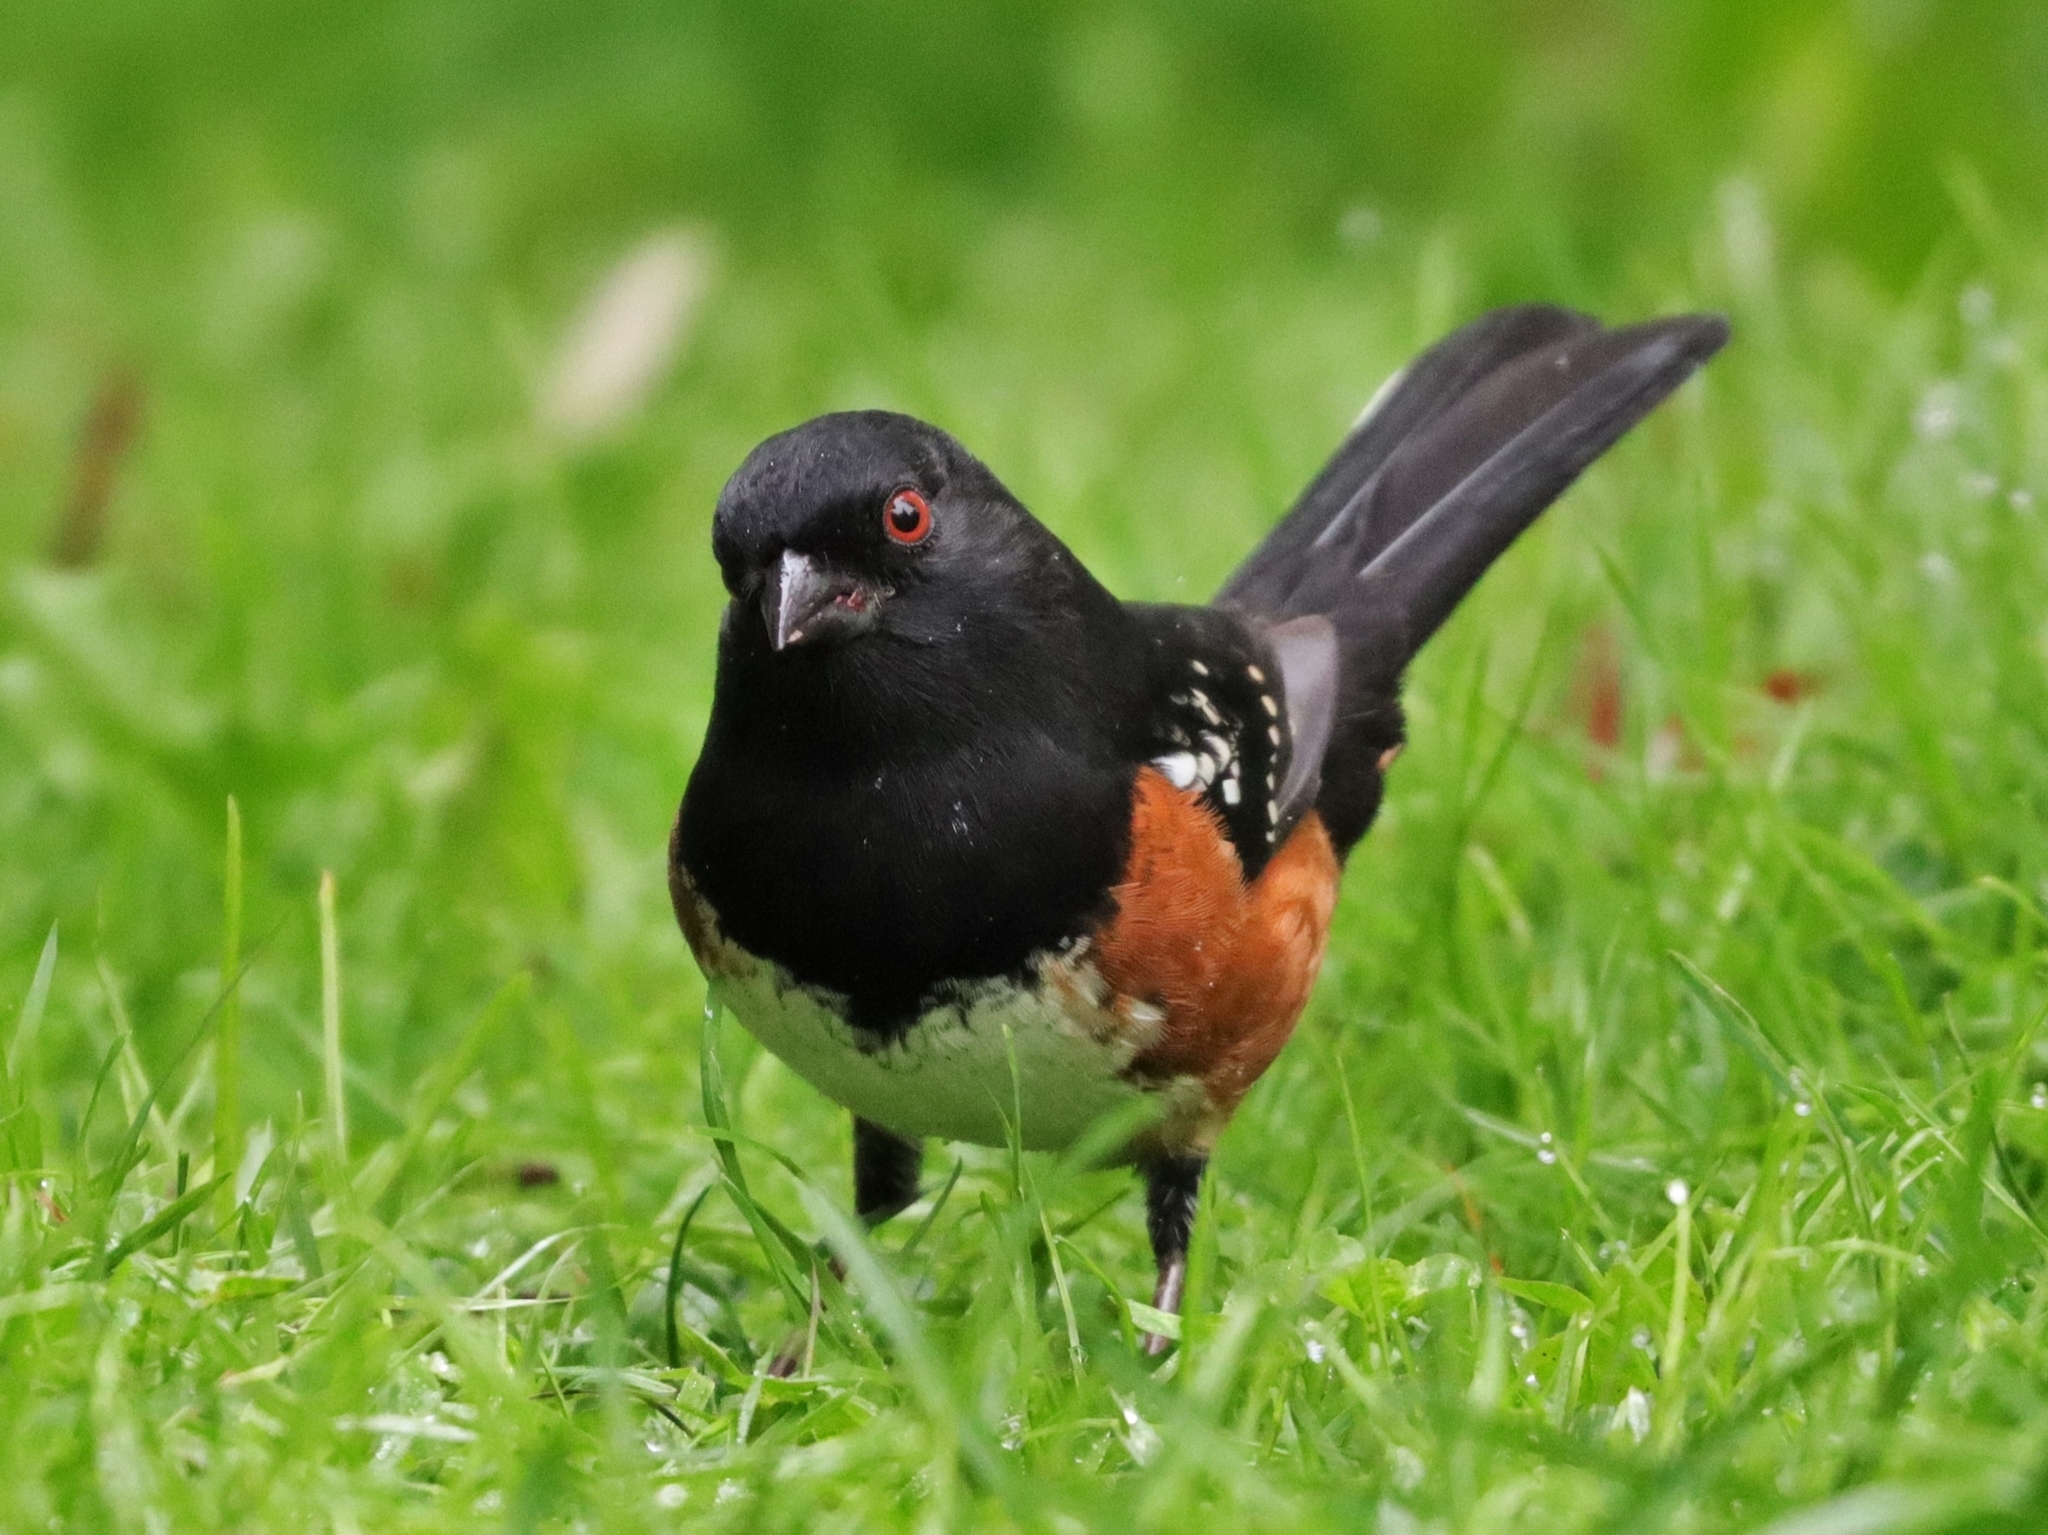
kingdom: Animalia
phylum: Chordata
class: Aves
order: Passeriformes
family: Passerellidae
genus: Pipilo
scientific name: Pipilo maculatus
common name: Spotted towhee
